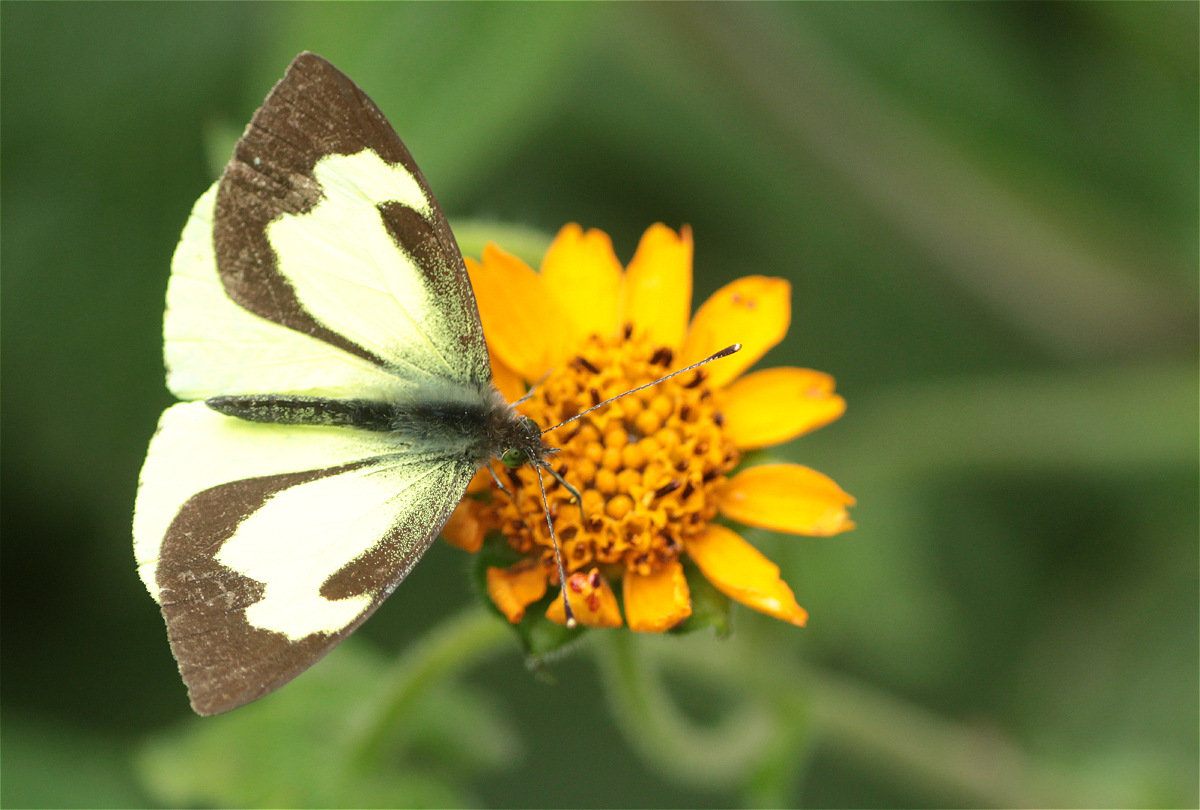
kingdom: Animalia
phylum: Arthropoda
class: Insecta
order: Lepidoptera
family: Pieridae
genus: Leptophobia
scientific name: Leptophobia eleone
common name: Silky wanderer
